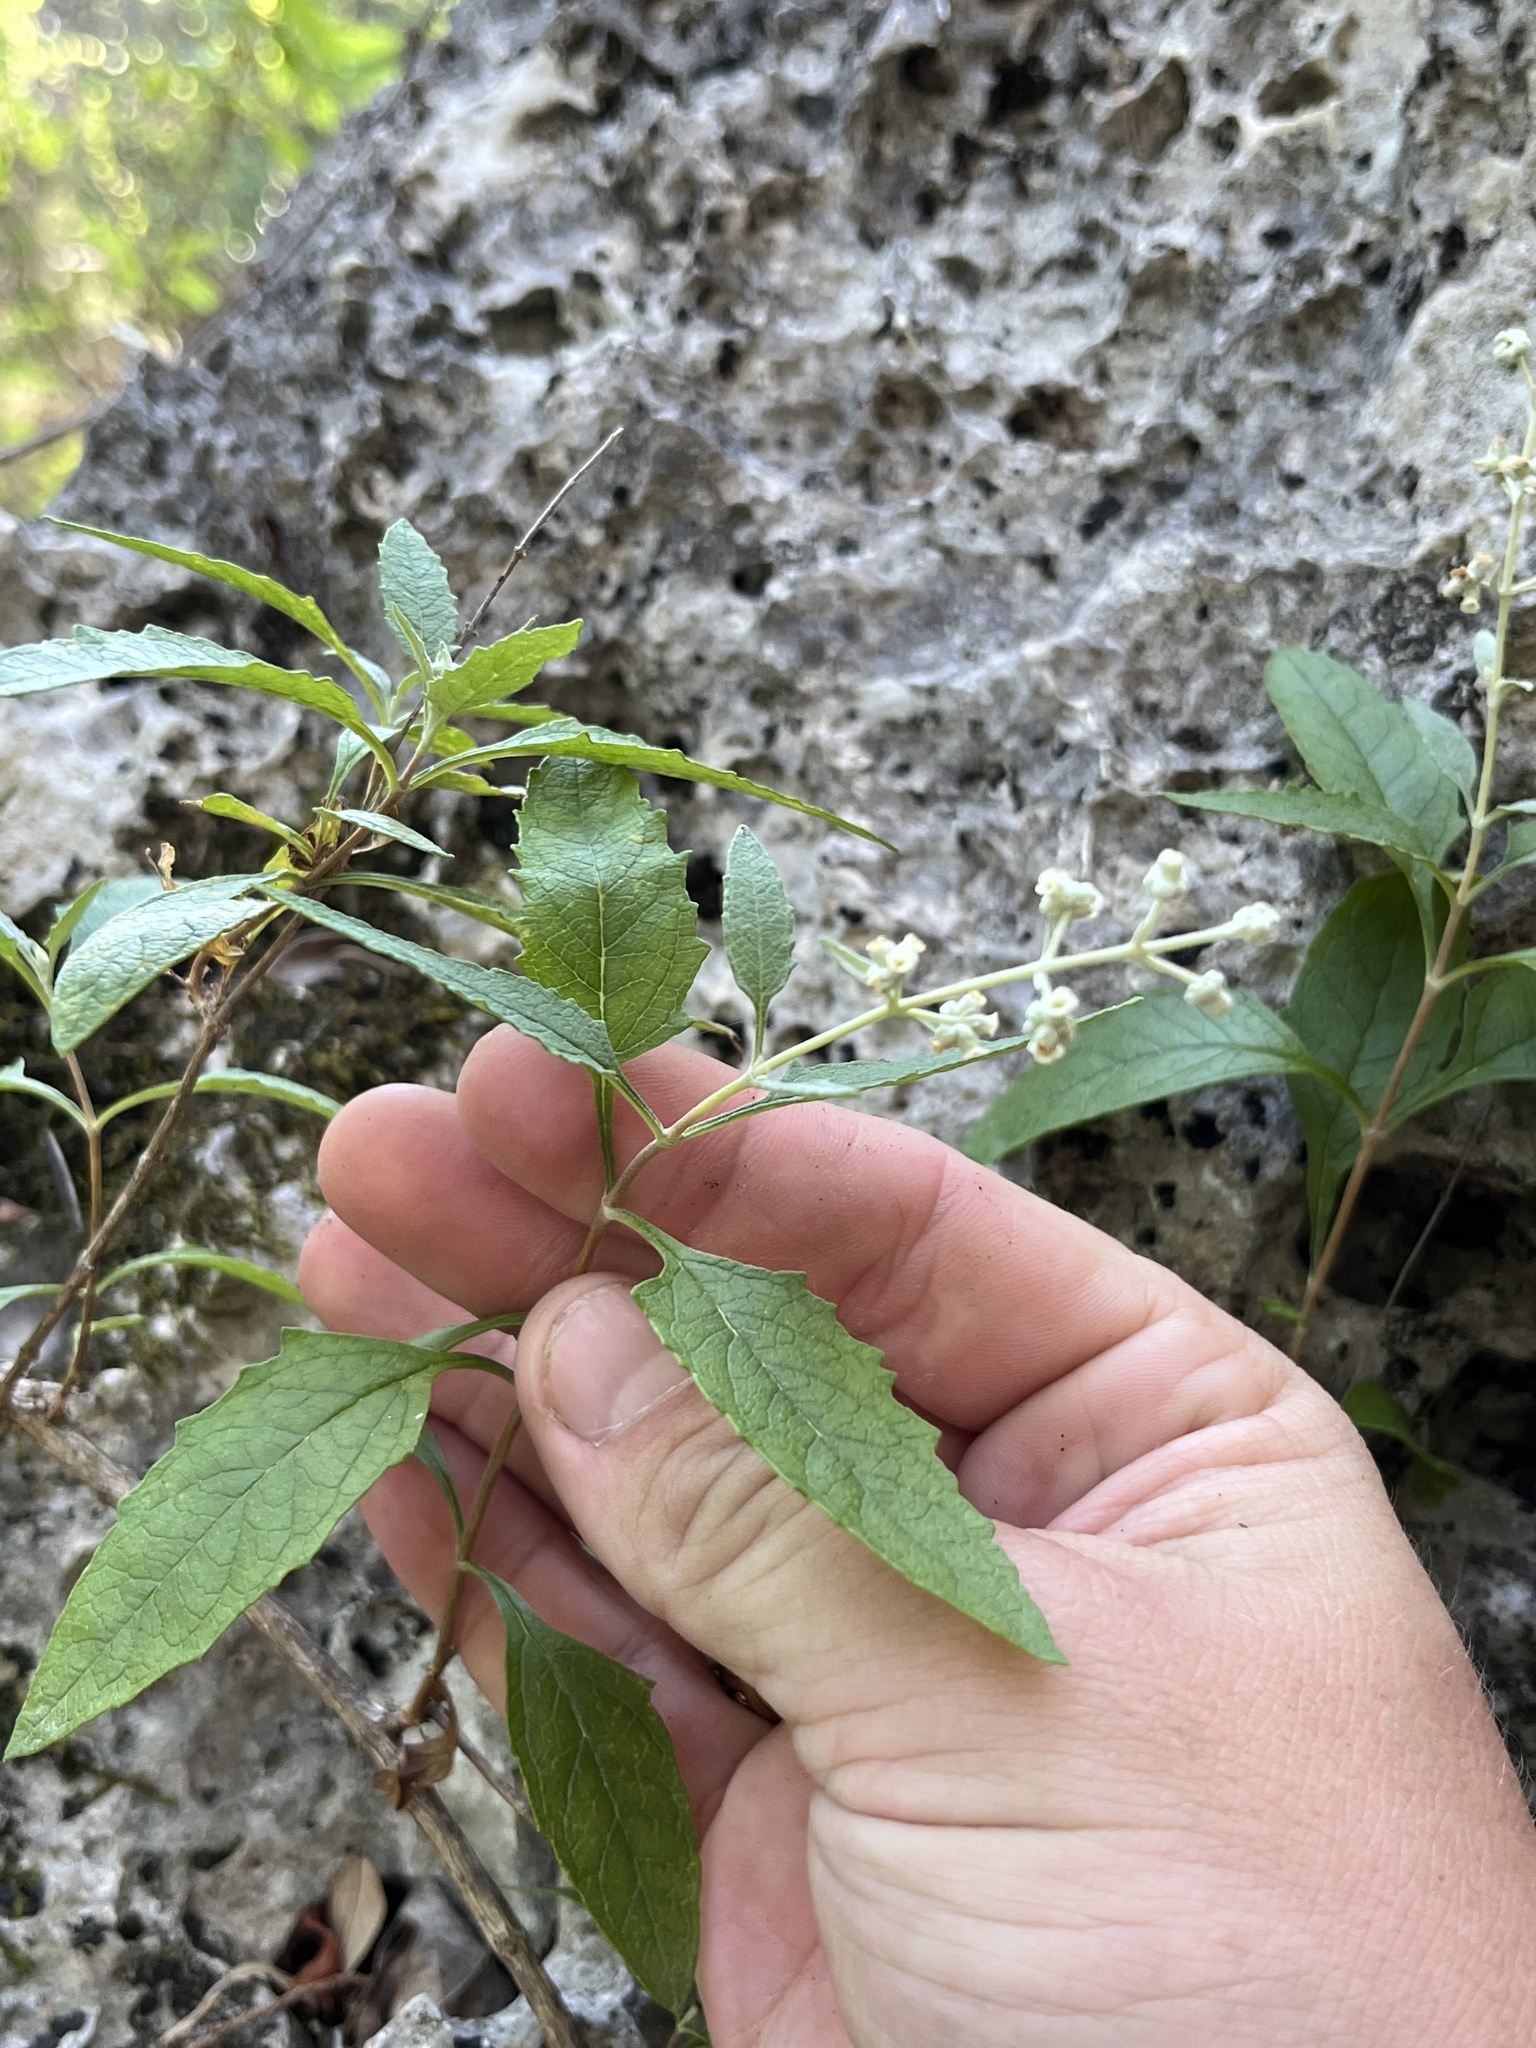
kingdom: Plantae
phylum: Tracheophyta
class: Magnoliopsida
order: Lamiales
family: Scrophulariaceae
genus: Buddleja
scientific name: Buddleja racemosa
